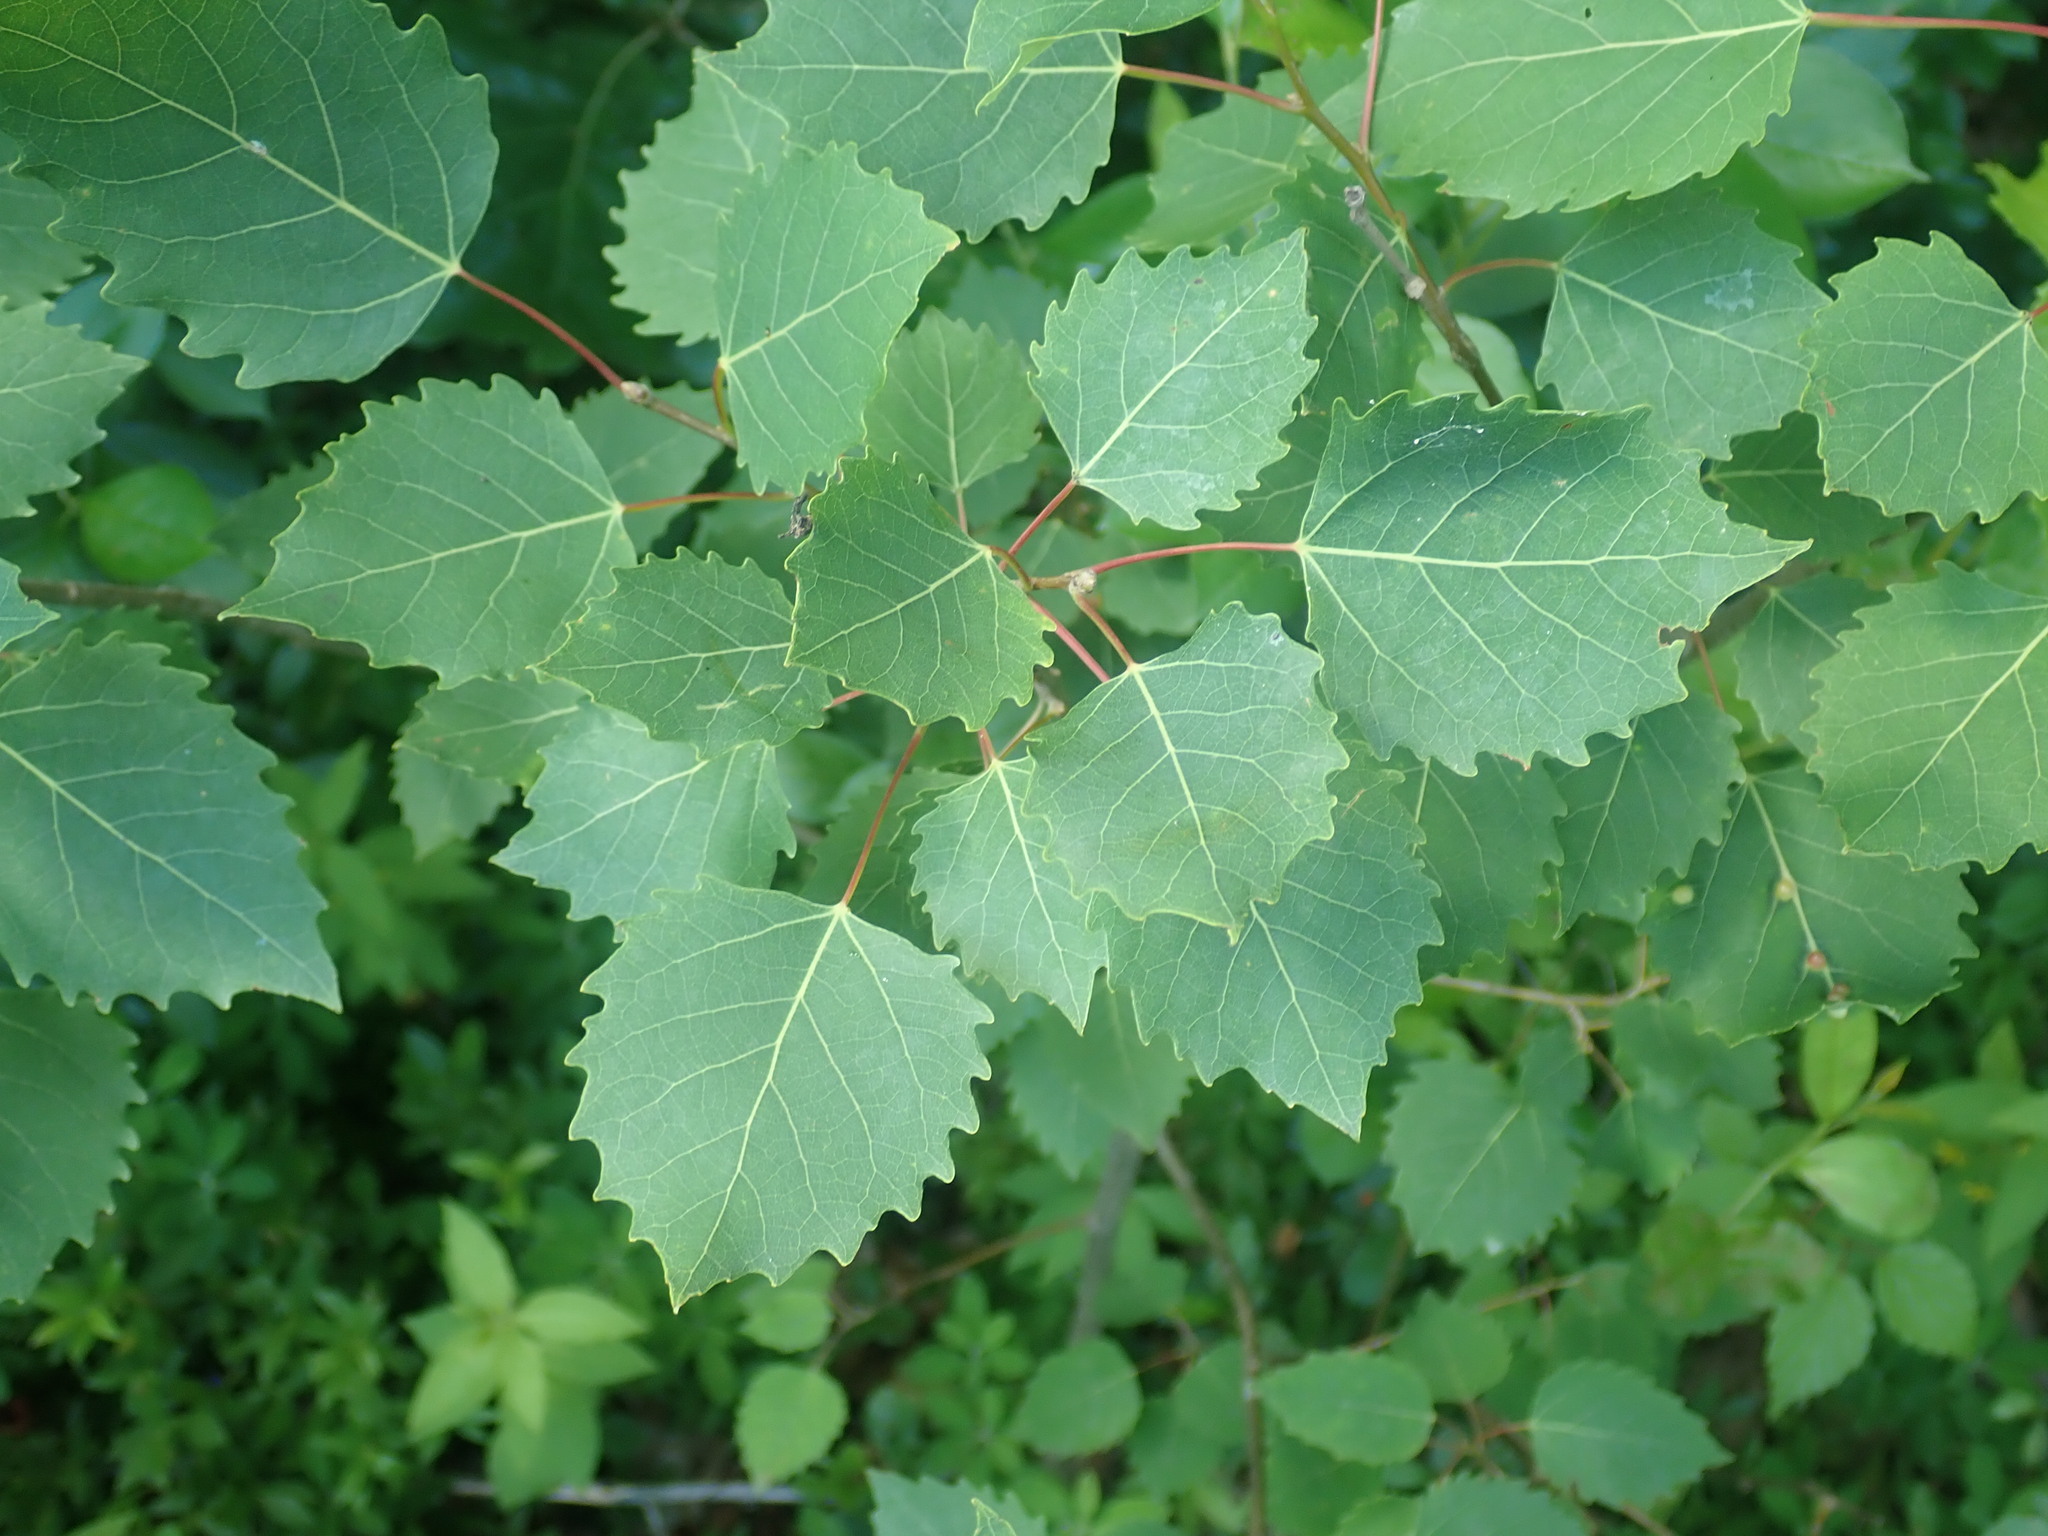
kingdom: Plantae
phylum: Tracheophyta
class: Magnoliopsida
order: Malpighiales
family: Salicaceae
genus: Populus
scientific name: Populus grandidentata
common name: Bigtooth aspen
